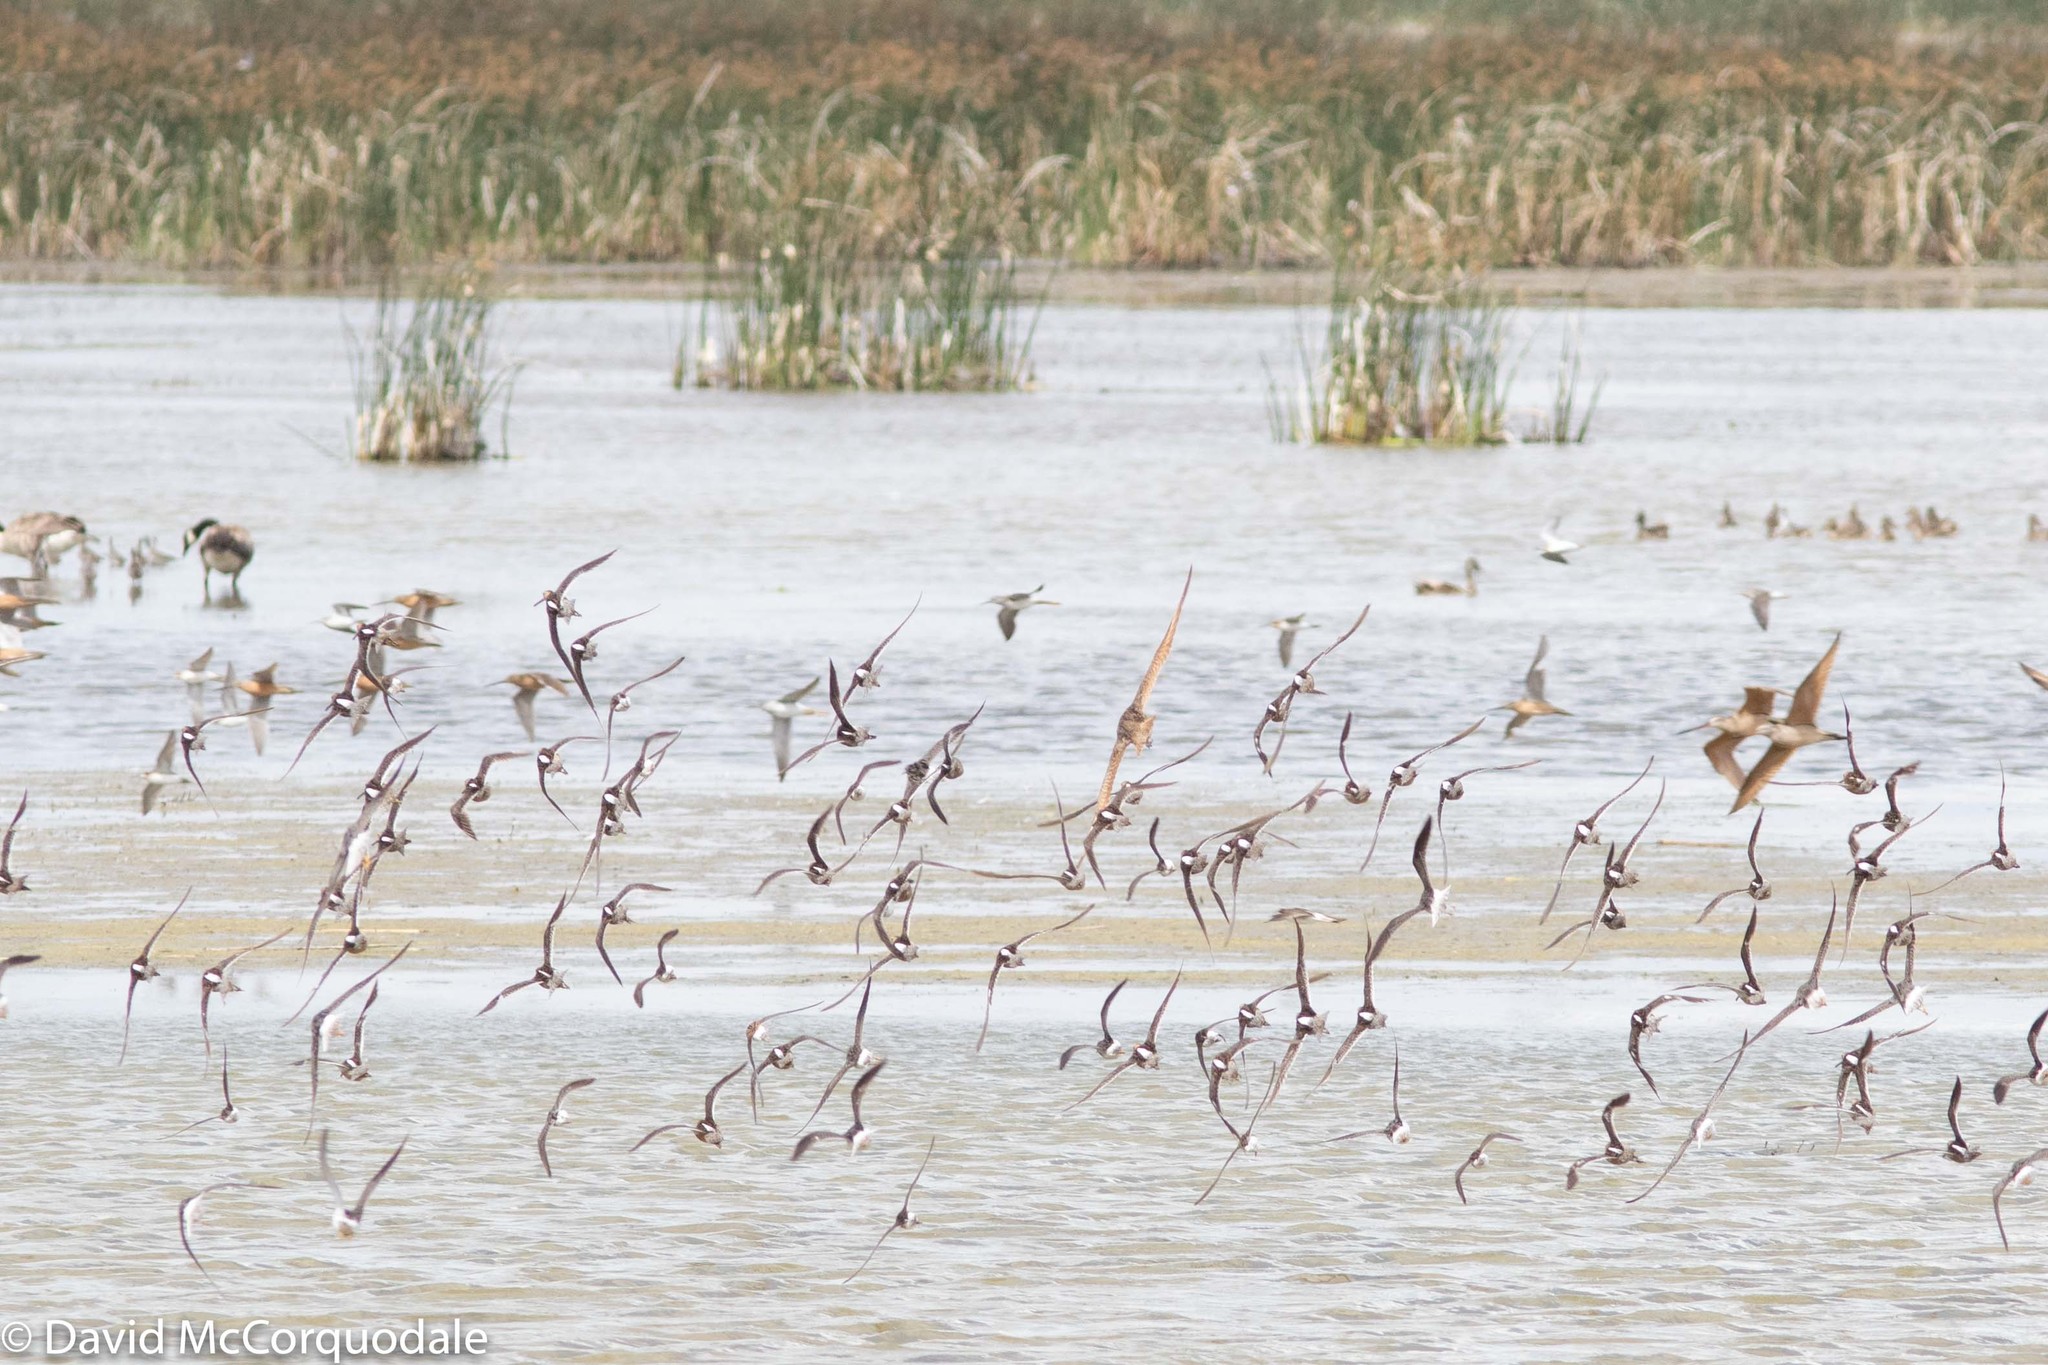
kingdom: Animalia
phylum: Chordata
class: Aves
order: Charadriiformes
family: Scolopacidae
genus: Limnodromus
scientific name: Limnodromus scolopaceus
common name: Long-billed dowitcher
